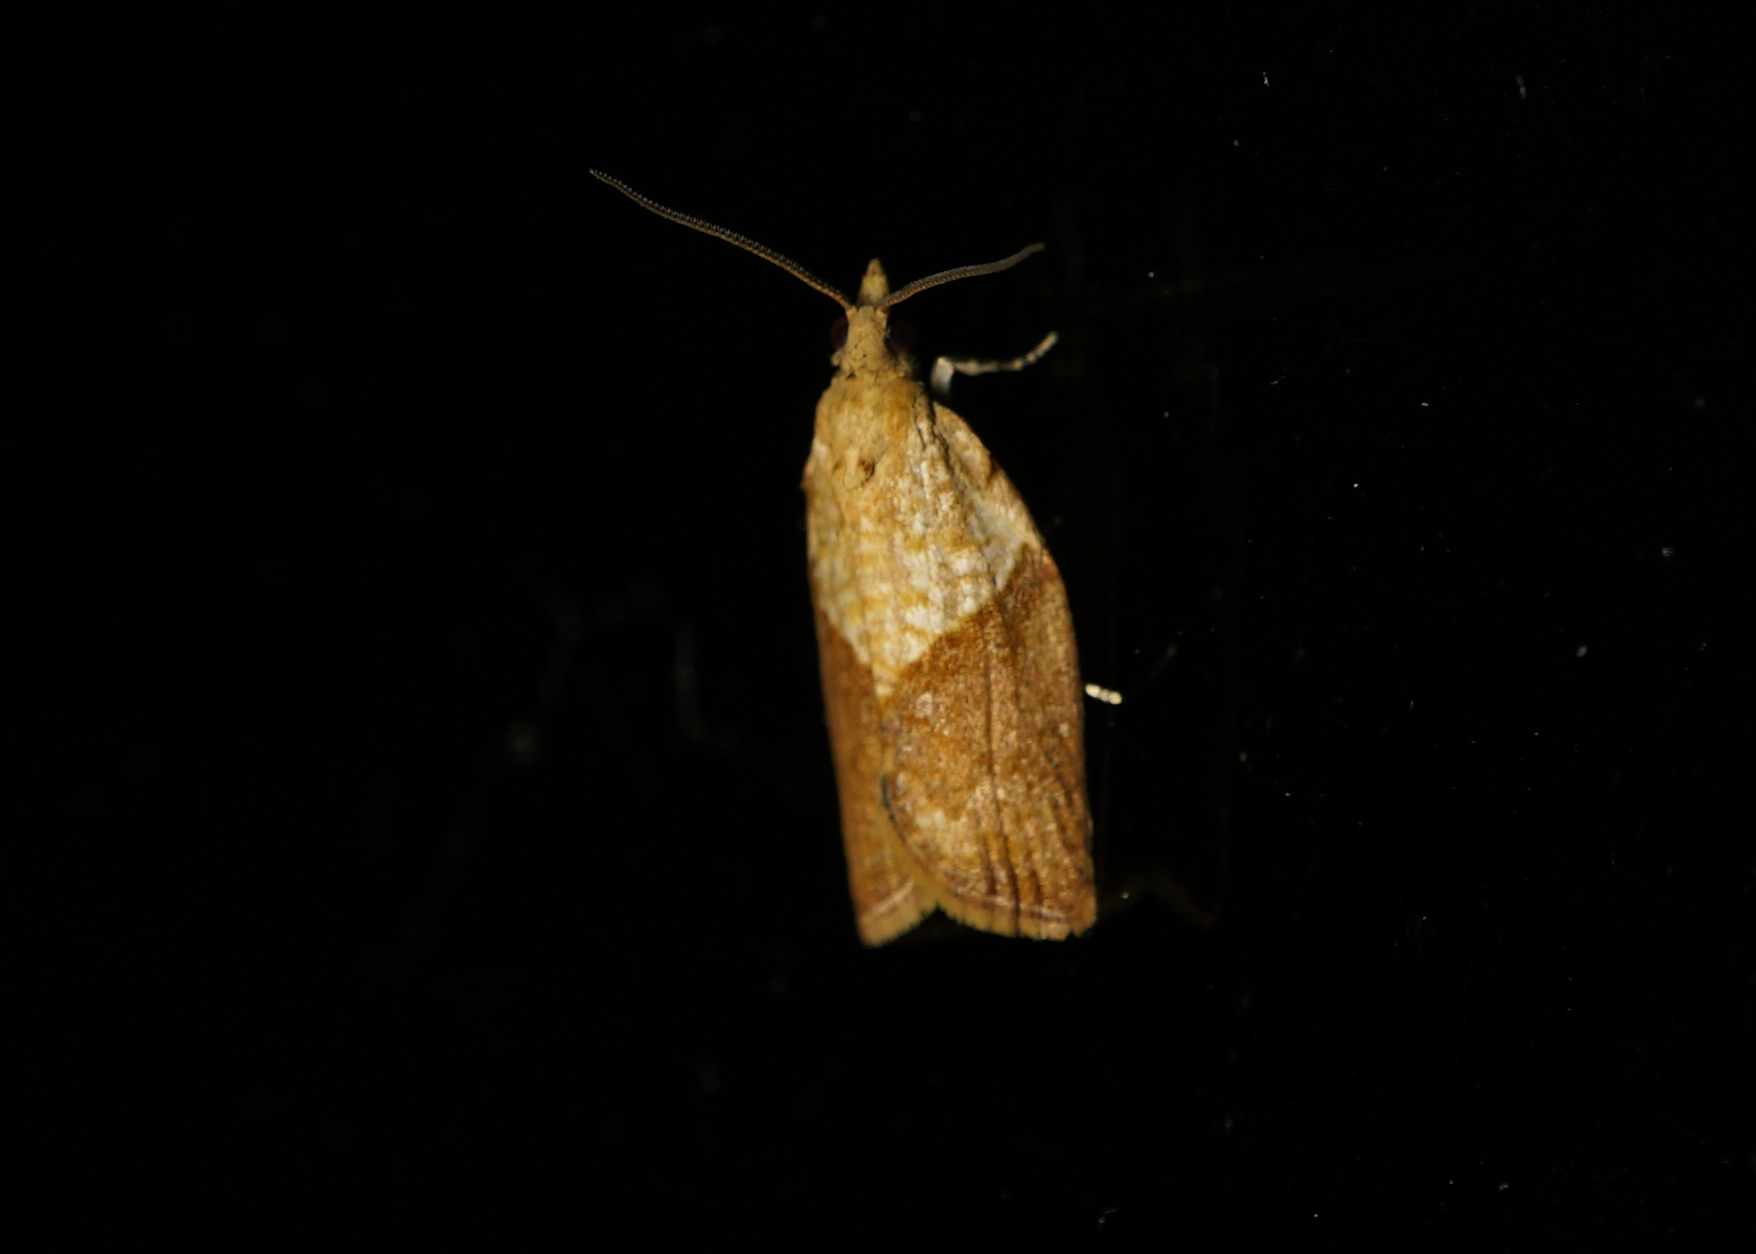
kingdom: Animalia
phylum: Arthropoda
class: Insecta
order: Lepidoptera
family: Tortricidae
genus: Epiphyas
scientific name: Epiphyas postvittana
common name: Light brown apple moth
